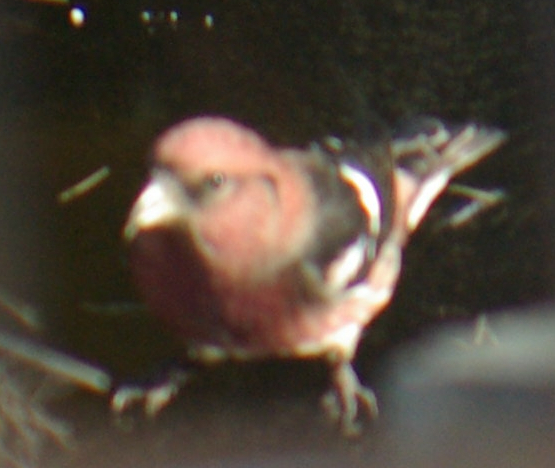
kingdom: Animalia
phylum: Chordata
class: Aves
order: Passeriformes
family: Fringillidae
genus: Loxia
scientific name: Loxia leucoptera
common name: Two-barred crossbill
